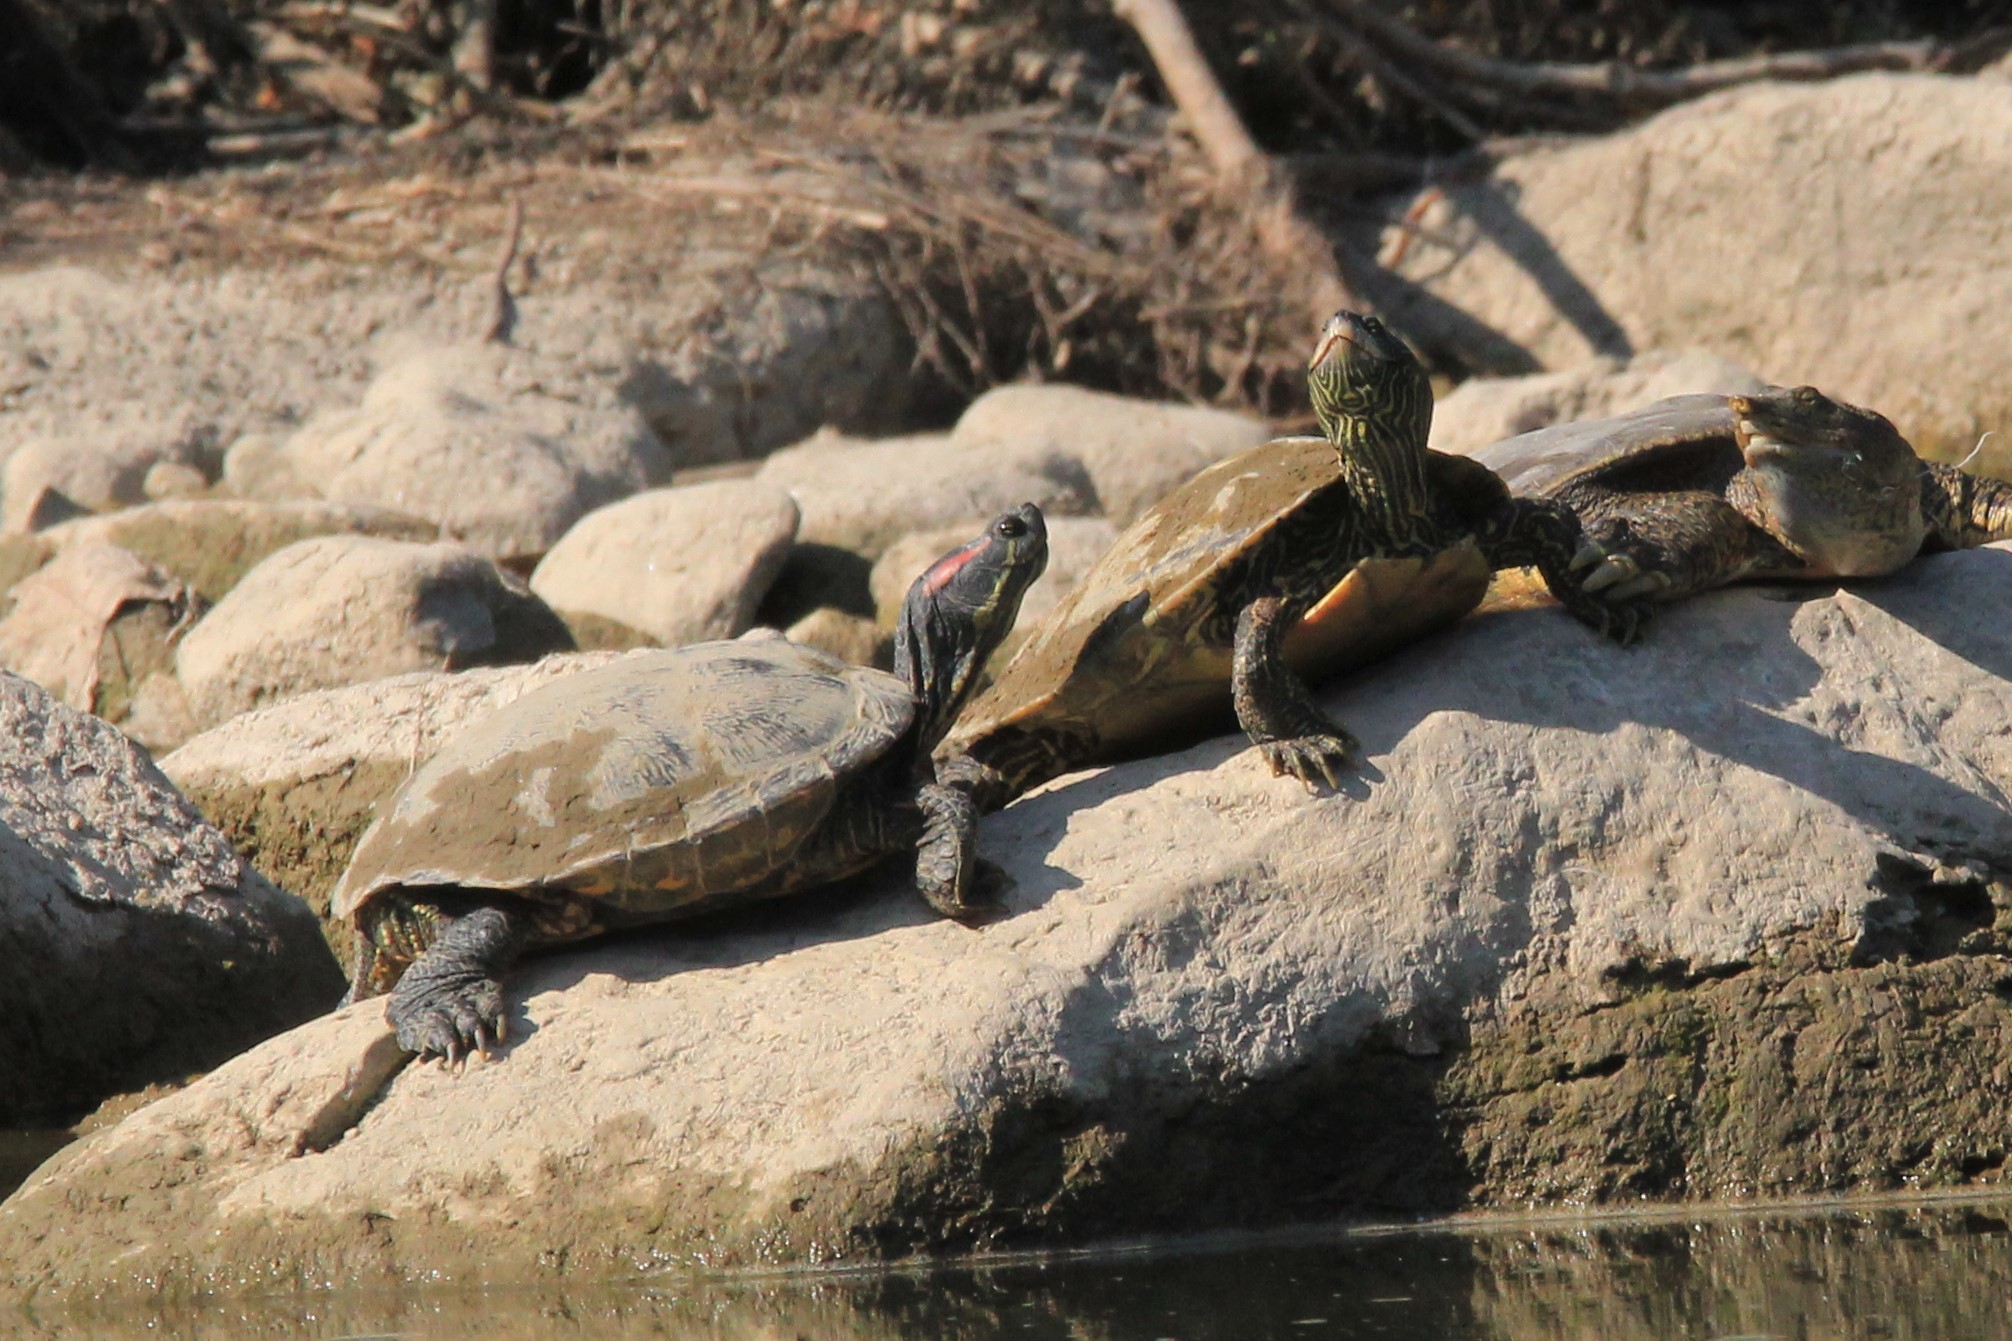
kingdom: Animalia
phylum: Chordata
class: Testudines
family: Emydidae
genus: Trachemys
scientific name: Trachemys scripta
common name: Slider
